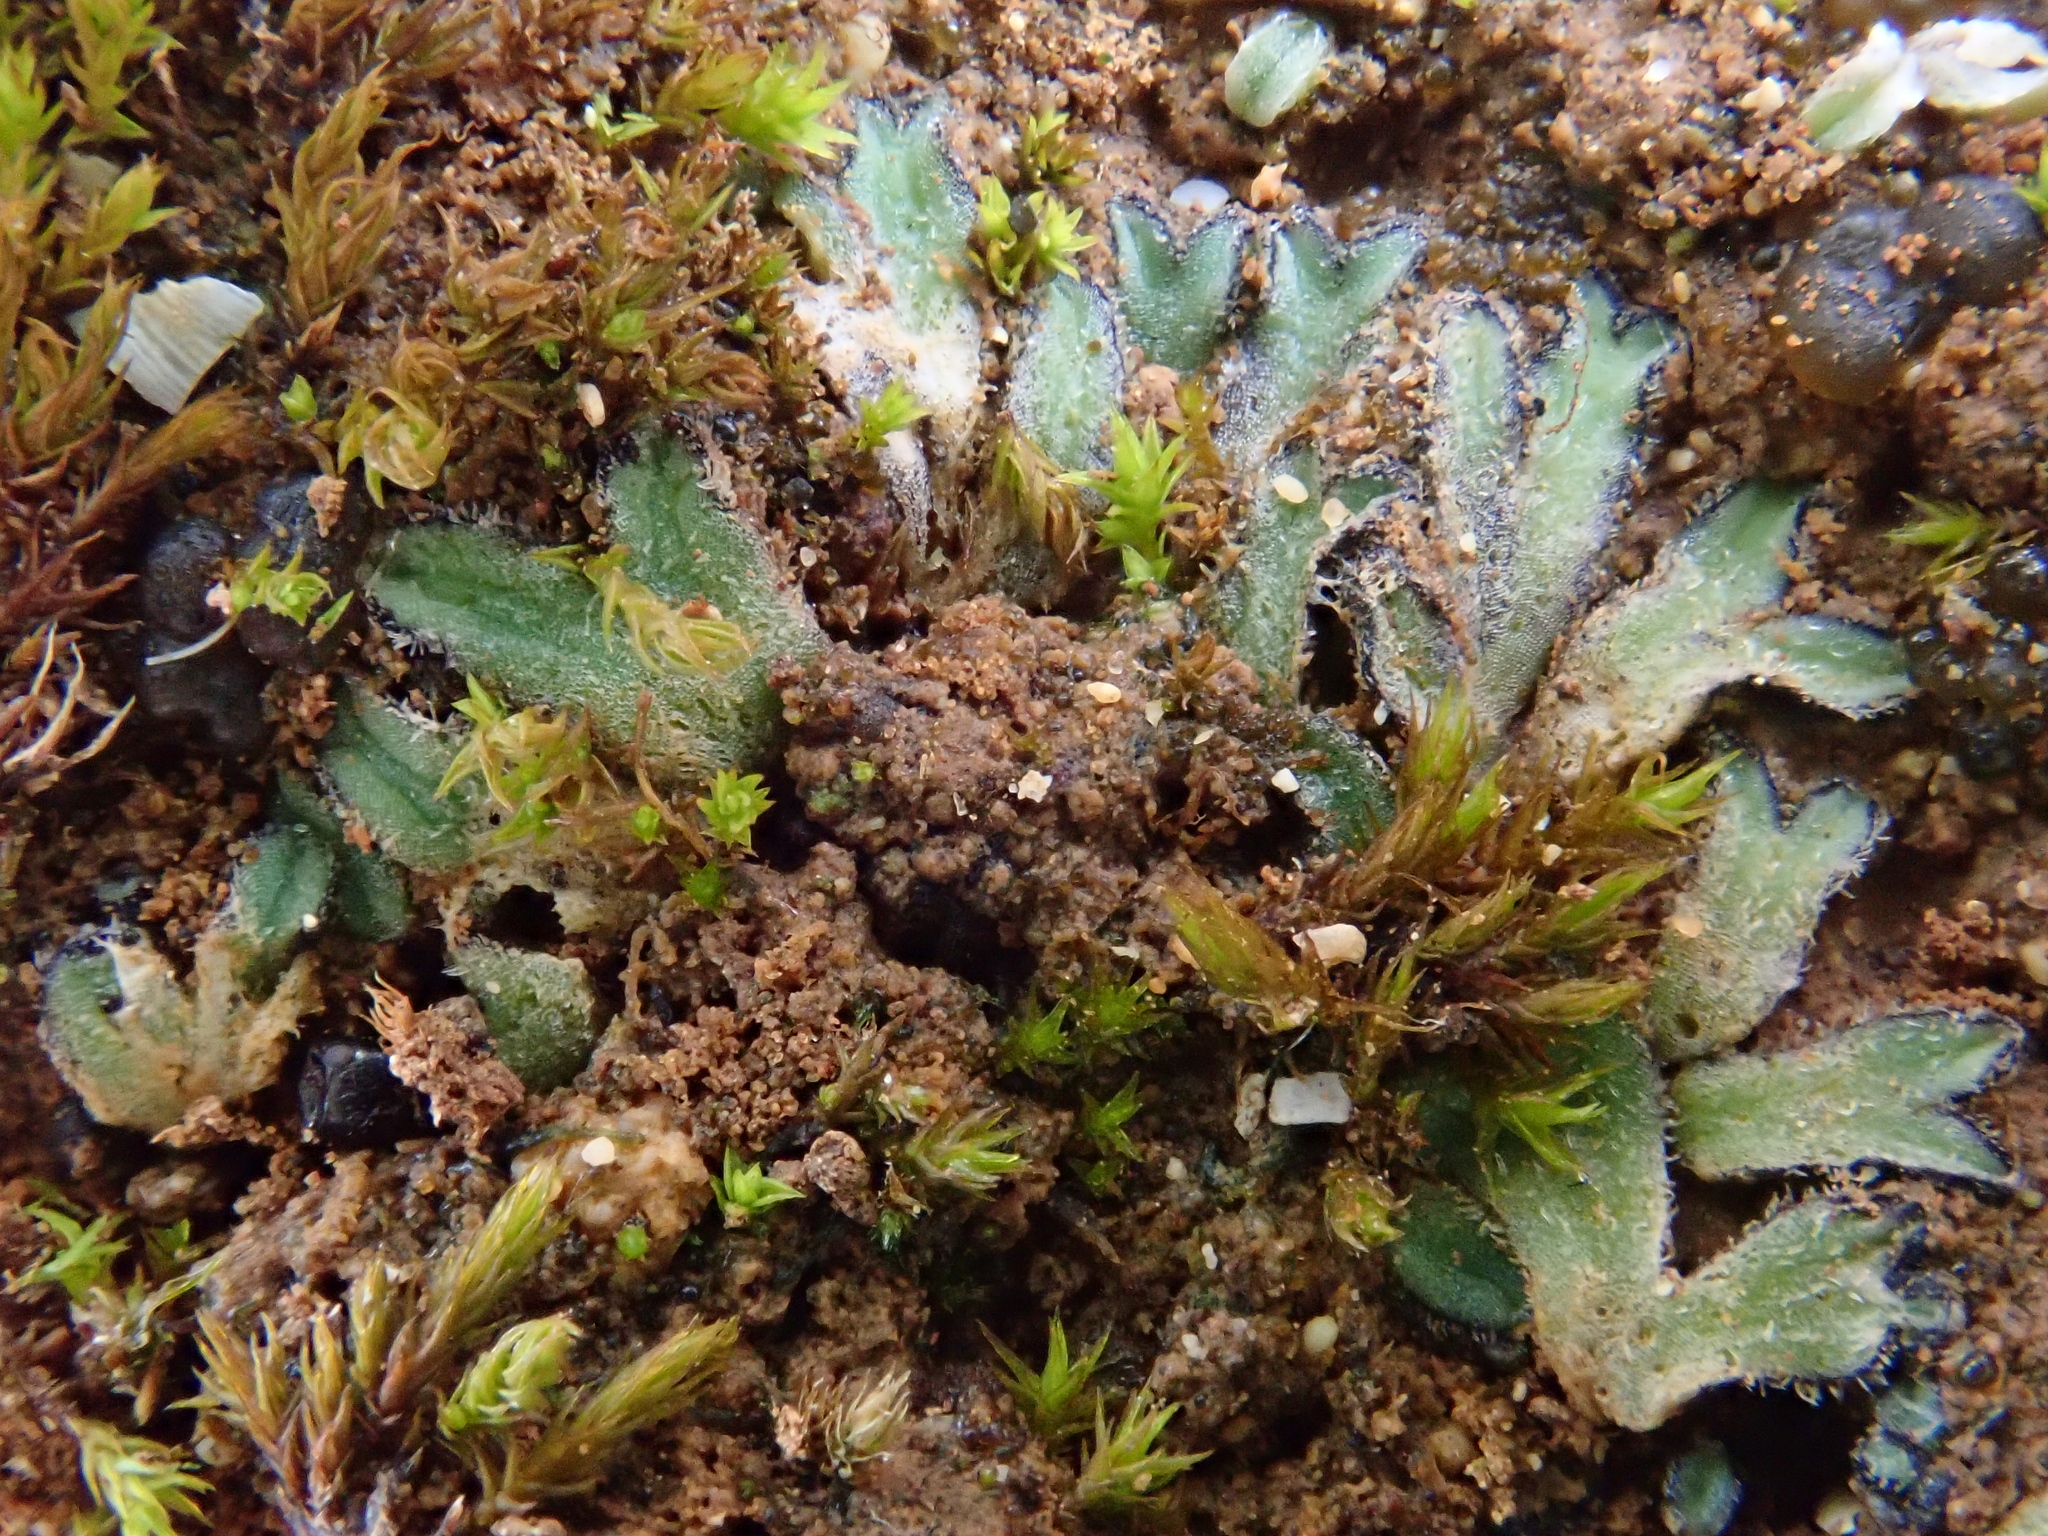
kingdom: Plantae
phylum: Marchantiophyta
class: Marchantiopsida
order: Marchantiales
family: Ricciaceae
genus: Riccia
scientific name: Riccia atromarginata
